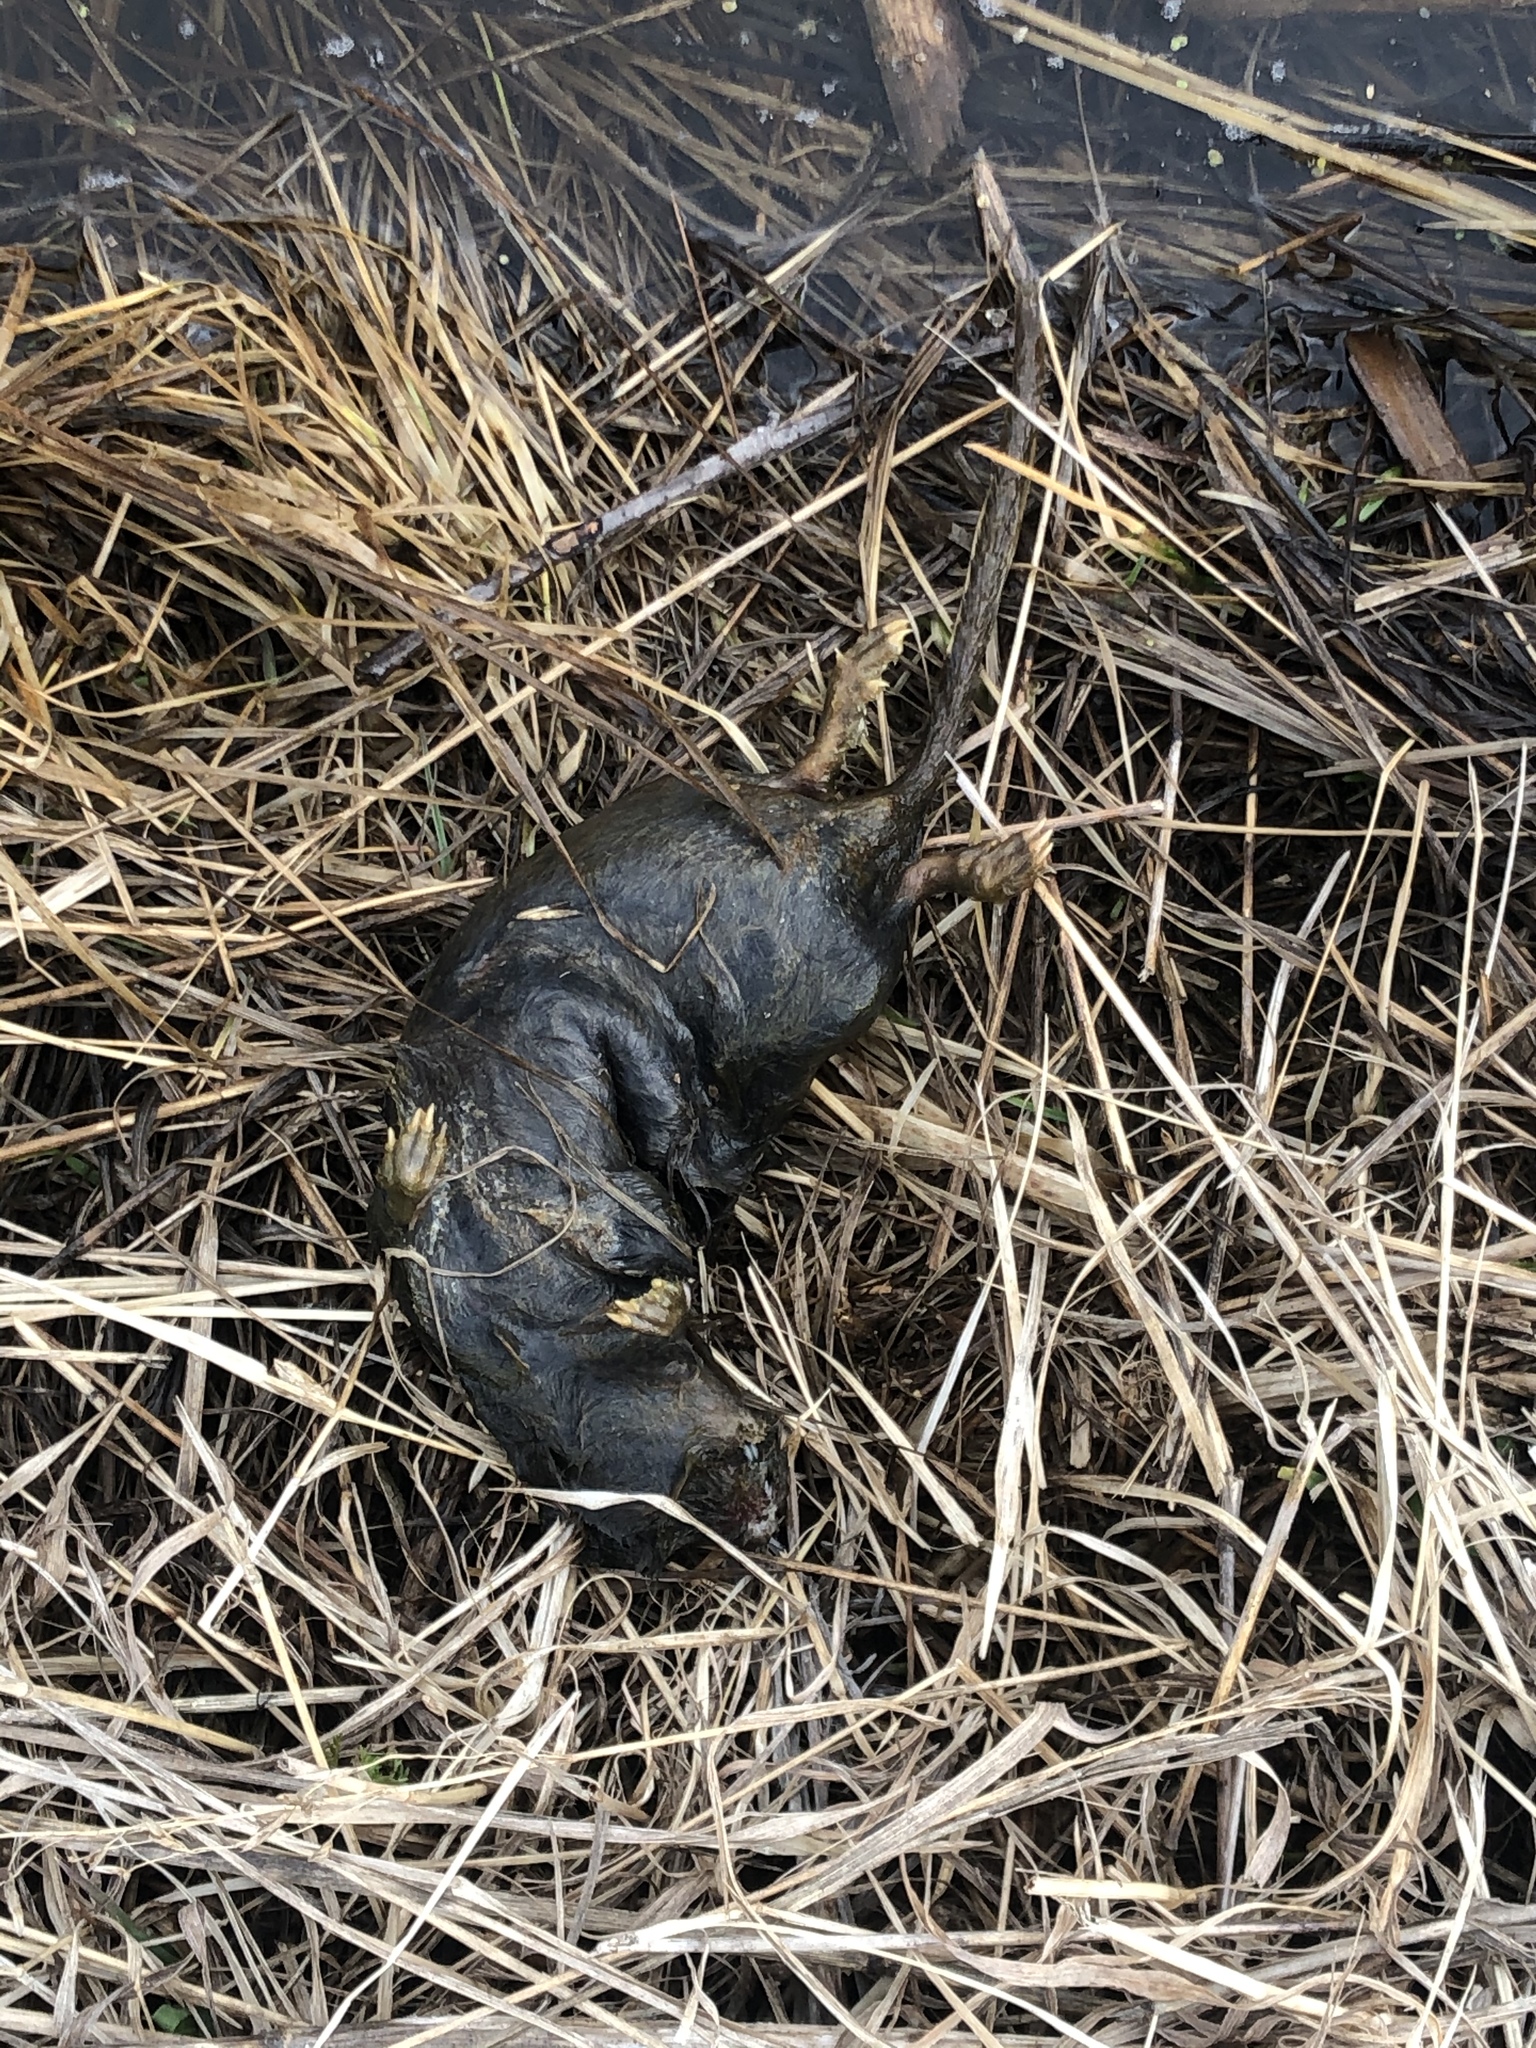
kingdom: Animalia
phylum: Chordata
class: Mammalia
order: Rodentia
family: Cricetidae
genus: Arvicola
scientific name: Arvicola amphibius
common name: European water vole
